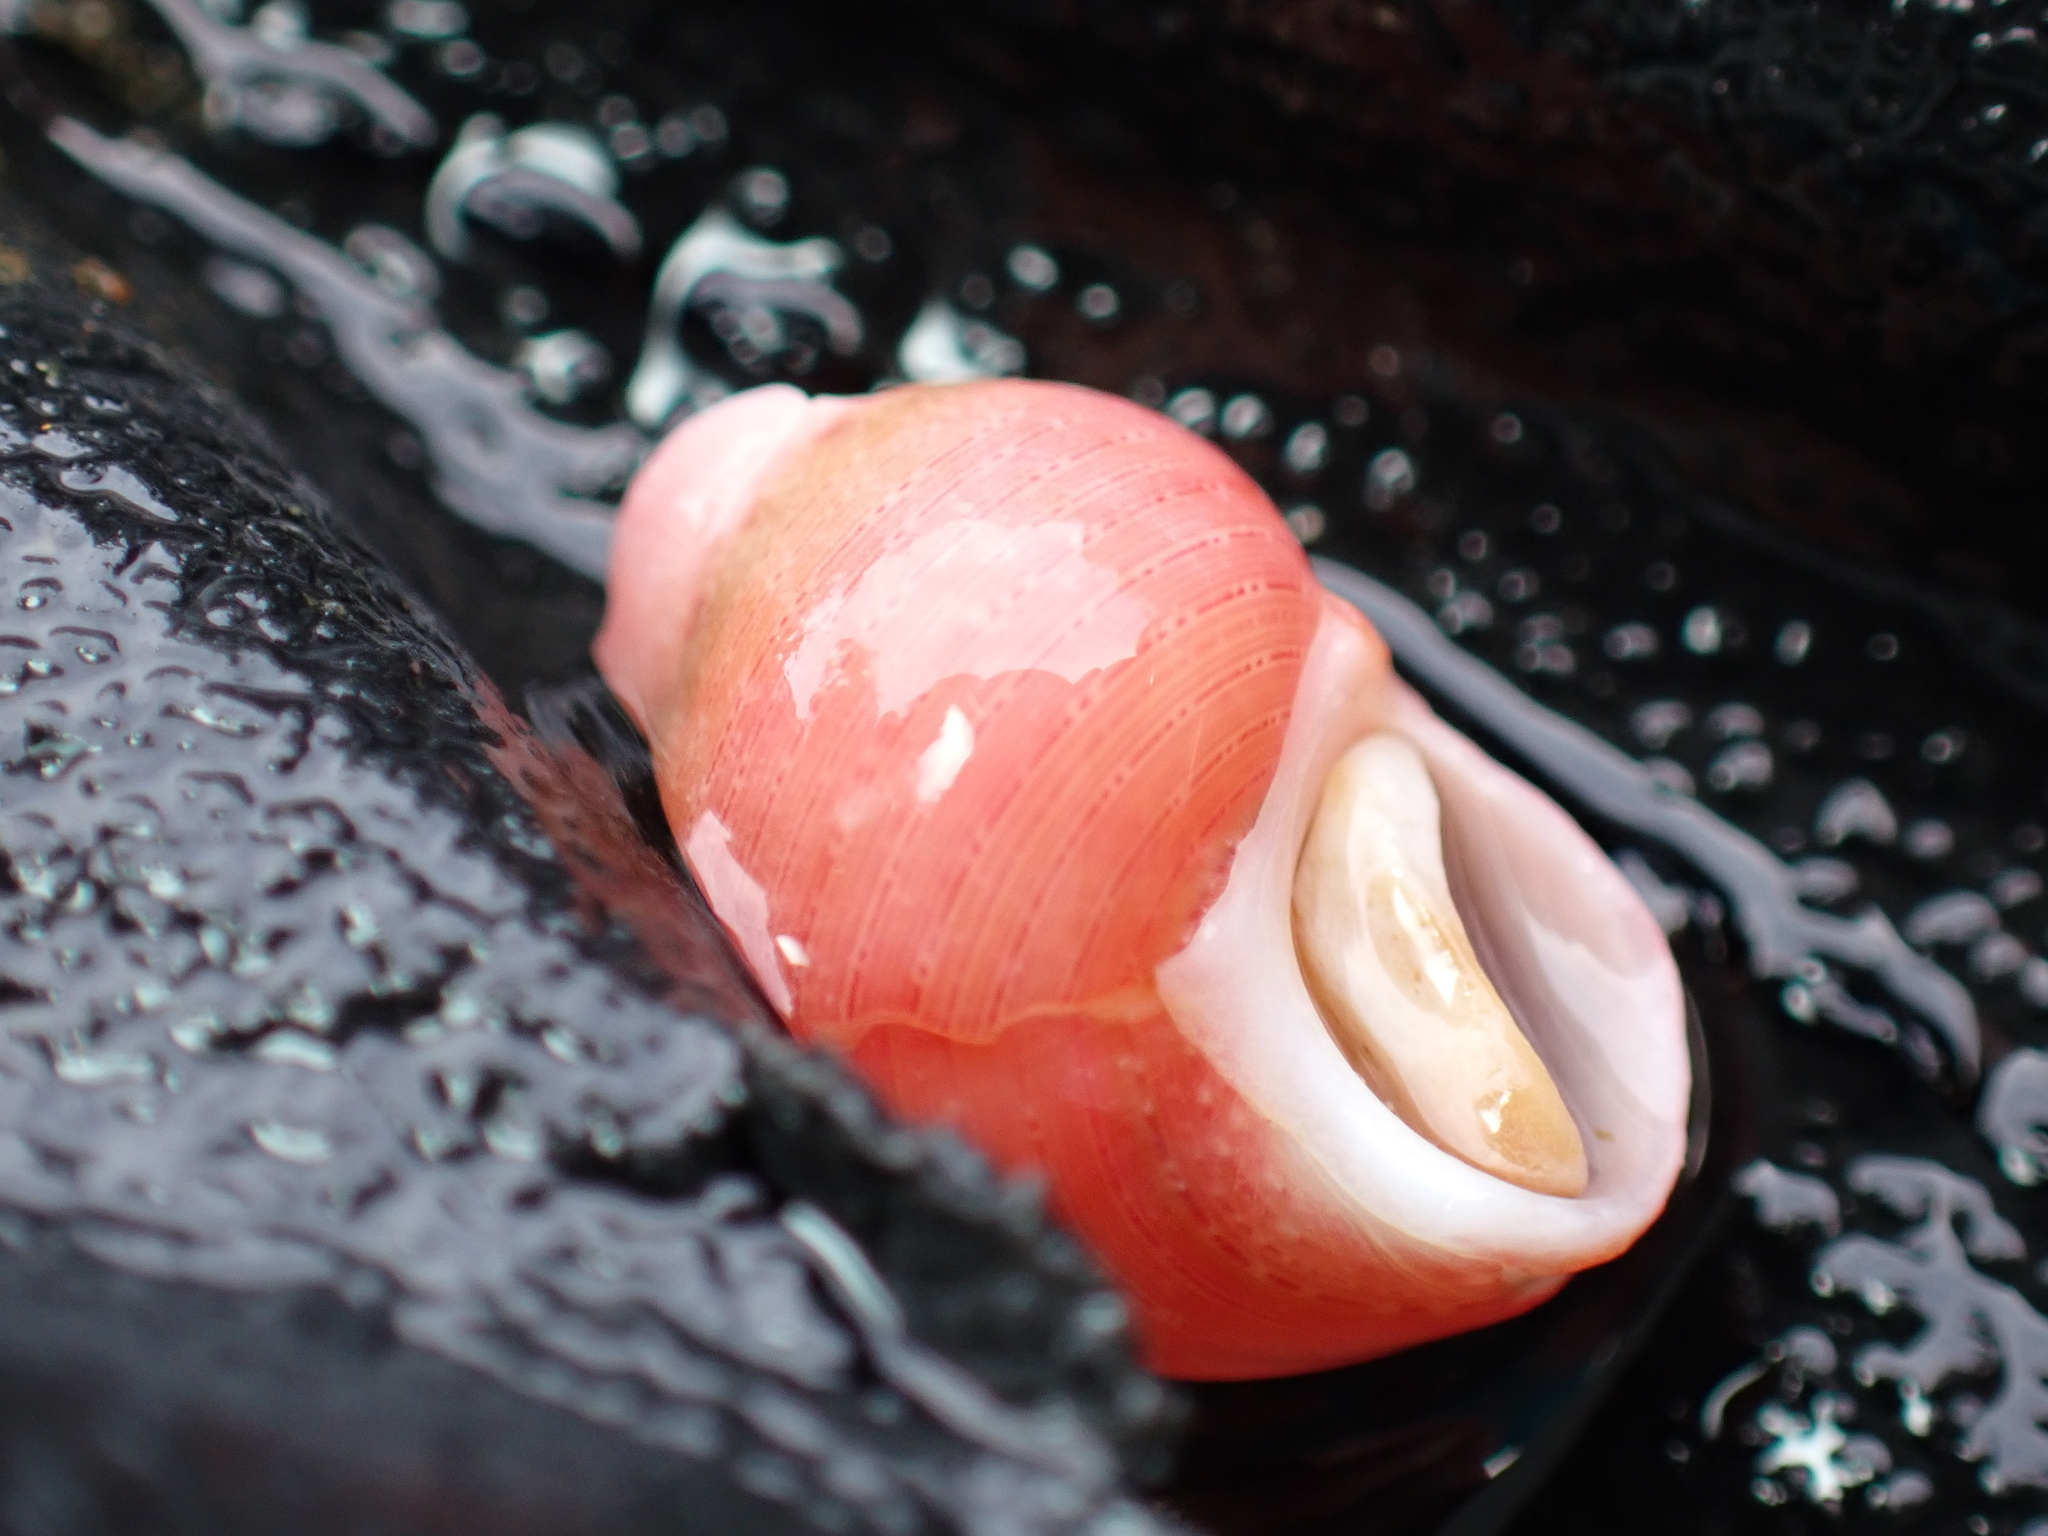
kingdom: Animalia
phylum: Mollusca
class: Gastropoda
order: Trochida
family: Phasianellidae
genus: Phasianella
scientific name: Phasianella solida
